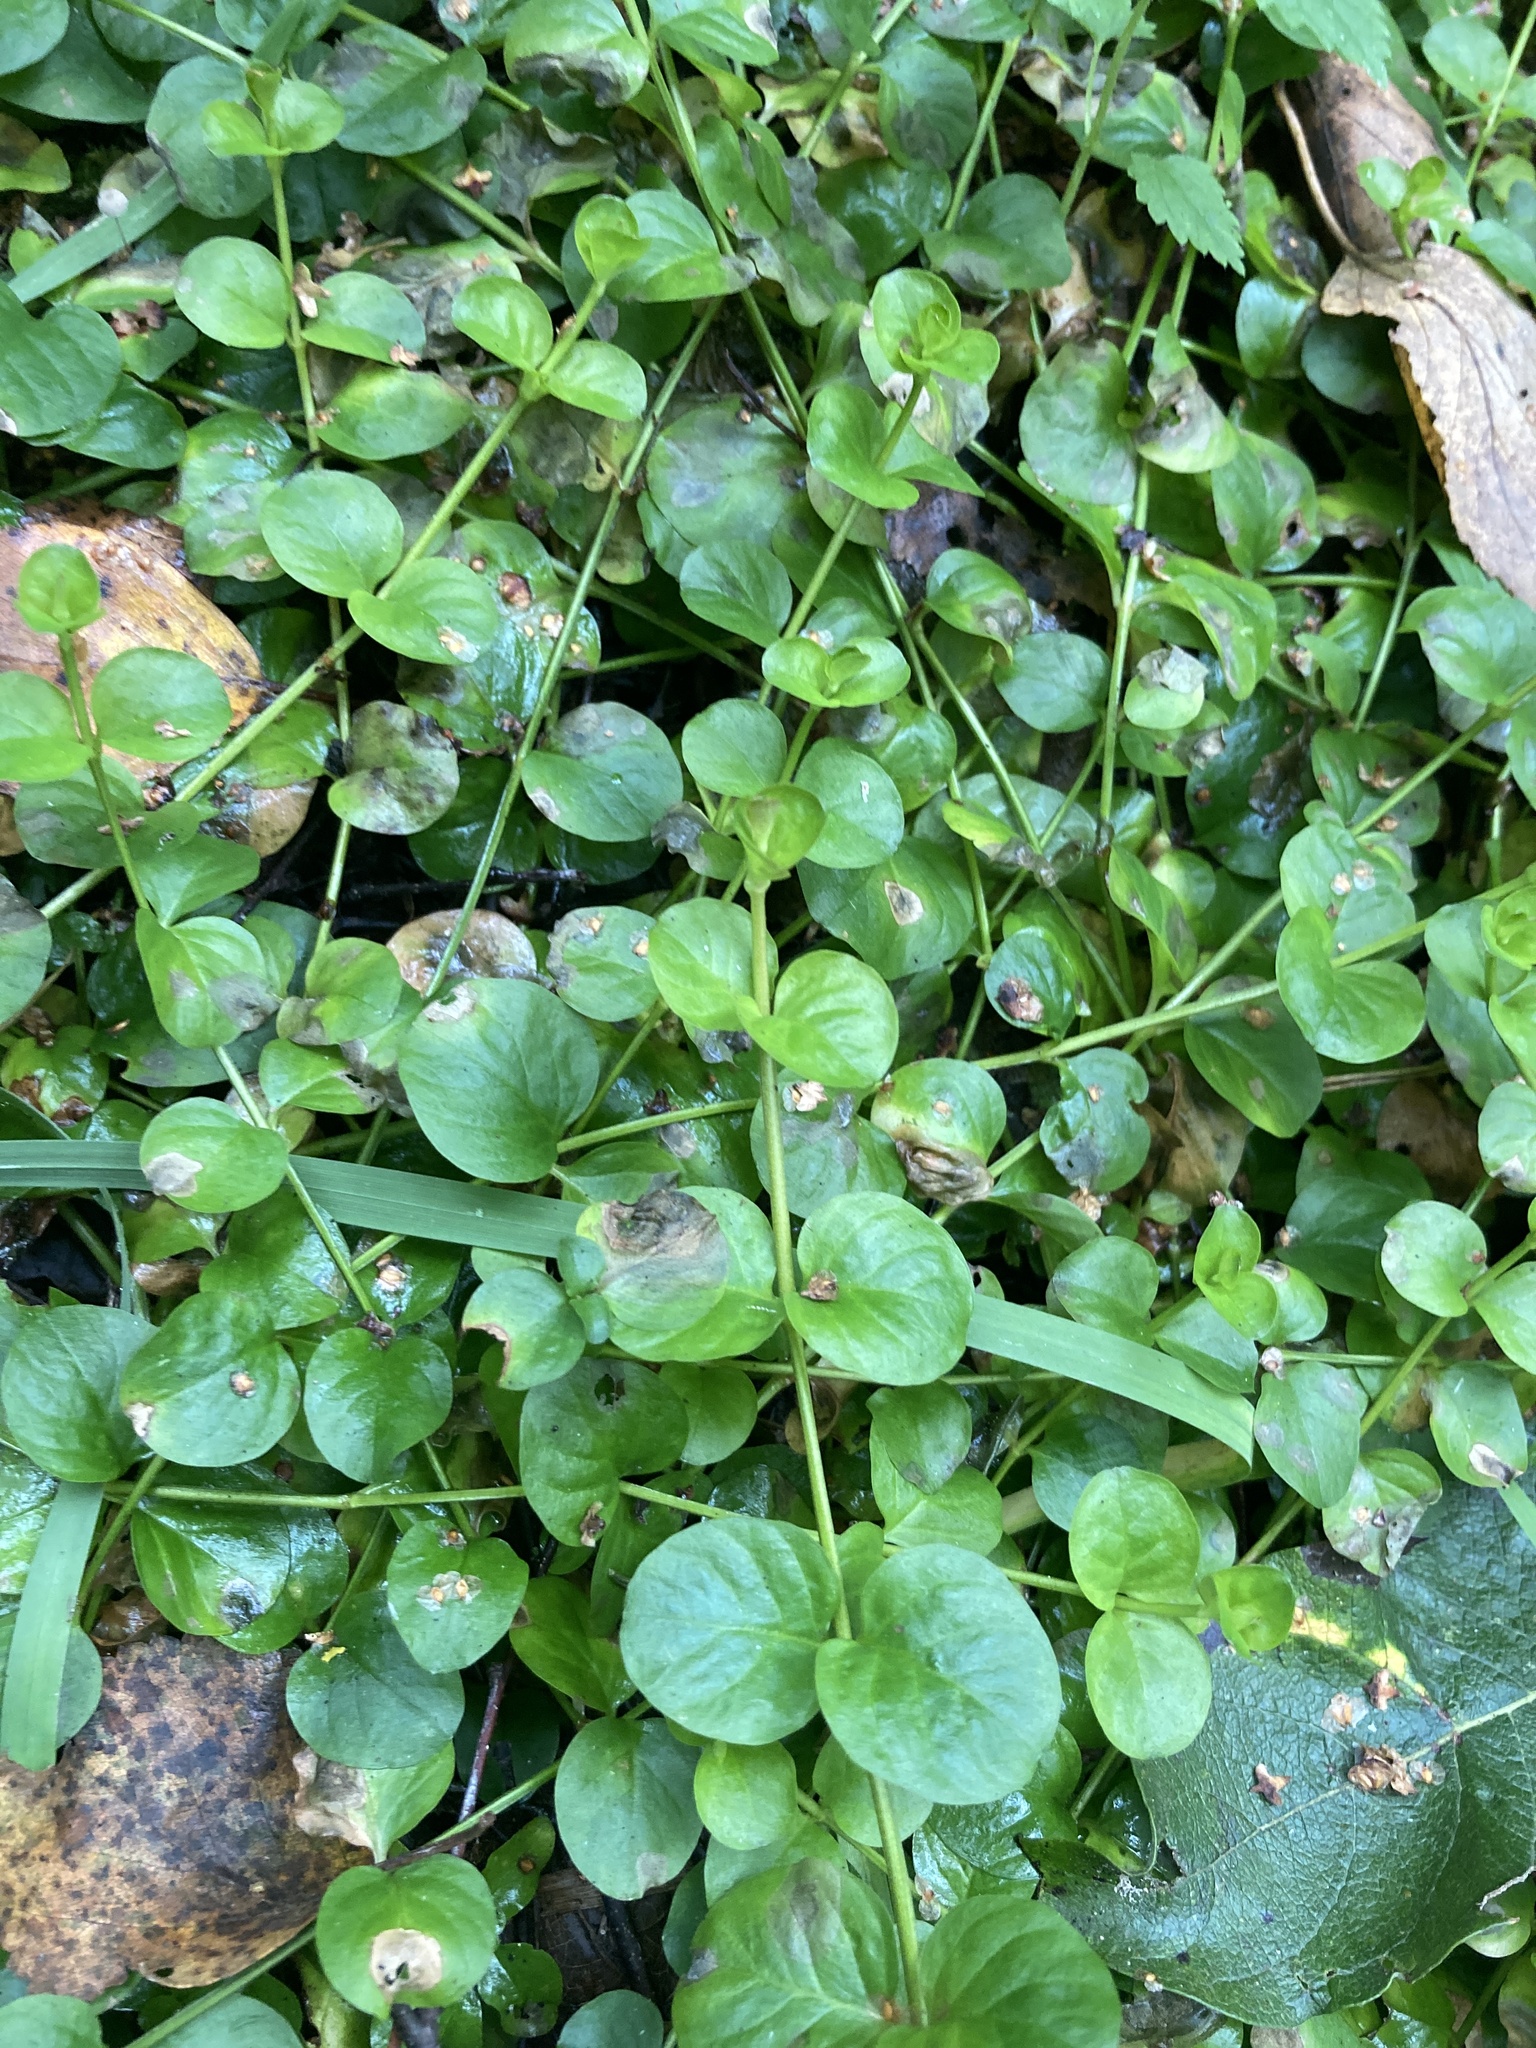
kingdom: Plantae
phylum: Tracheophyta
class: Magnoliopsida
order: Ericales
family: Primulaceae
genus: Lysimachia
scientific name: Lysimachia nummularia
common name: Moneywort
